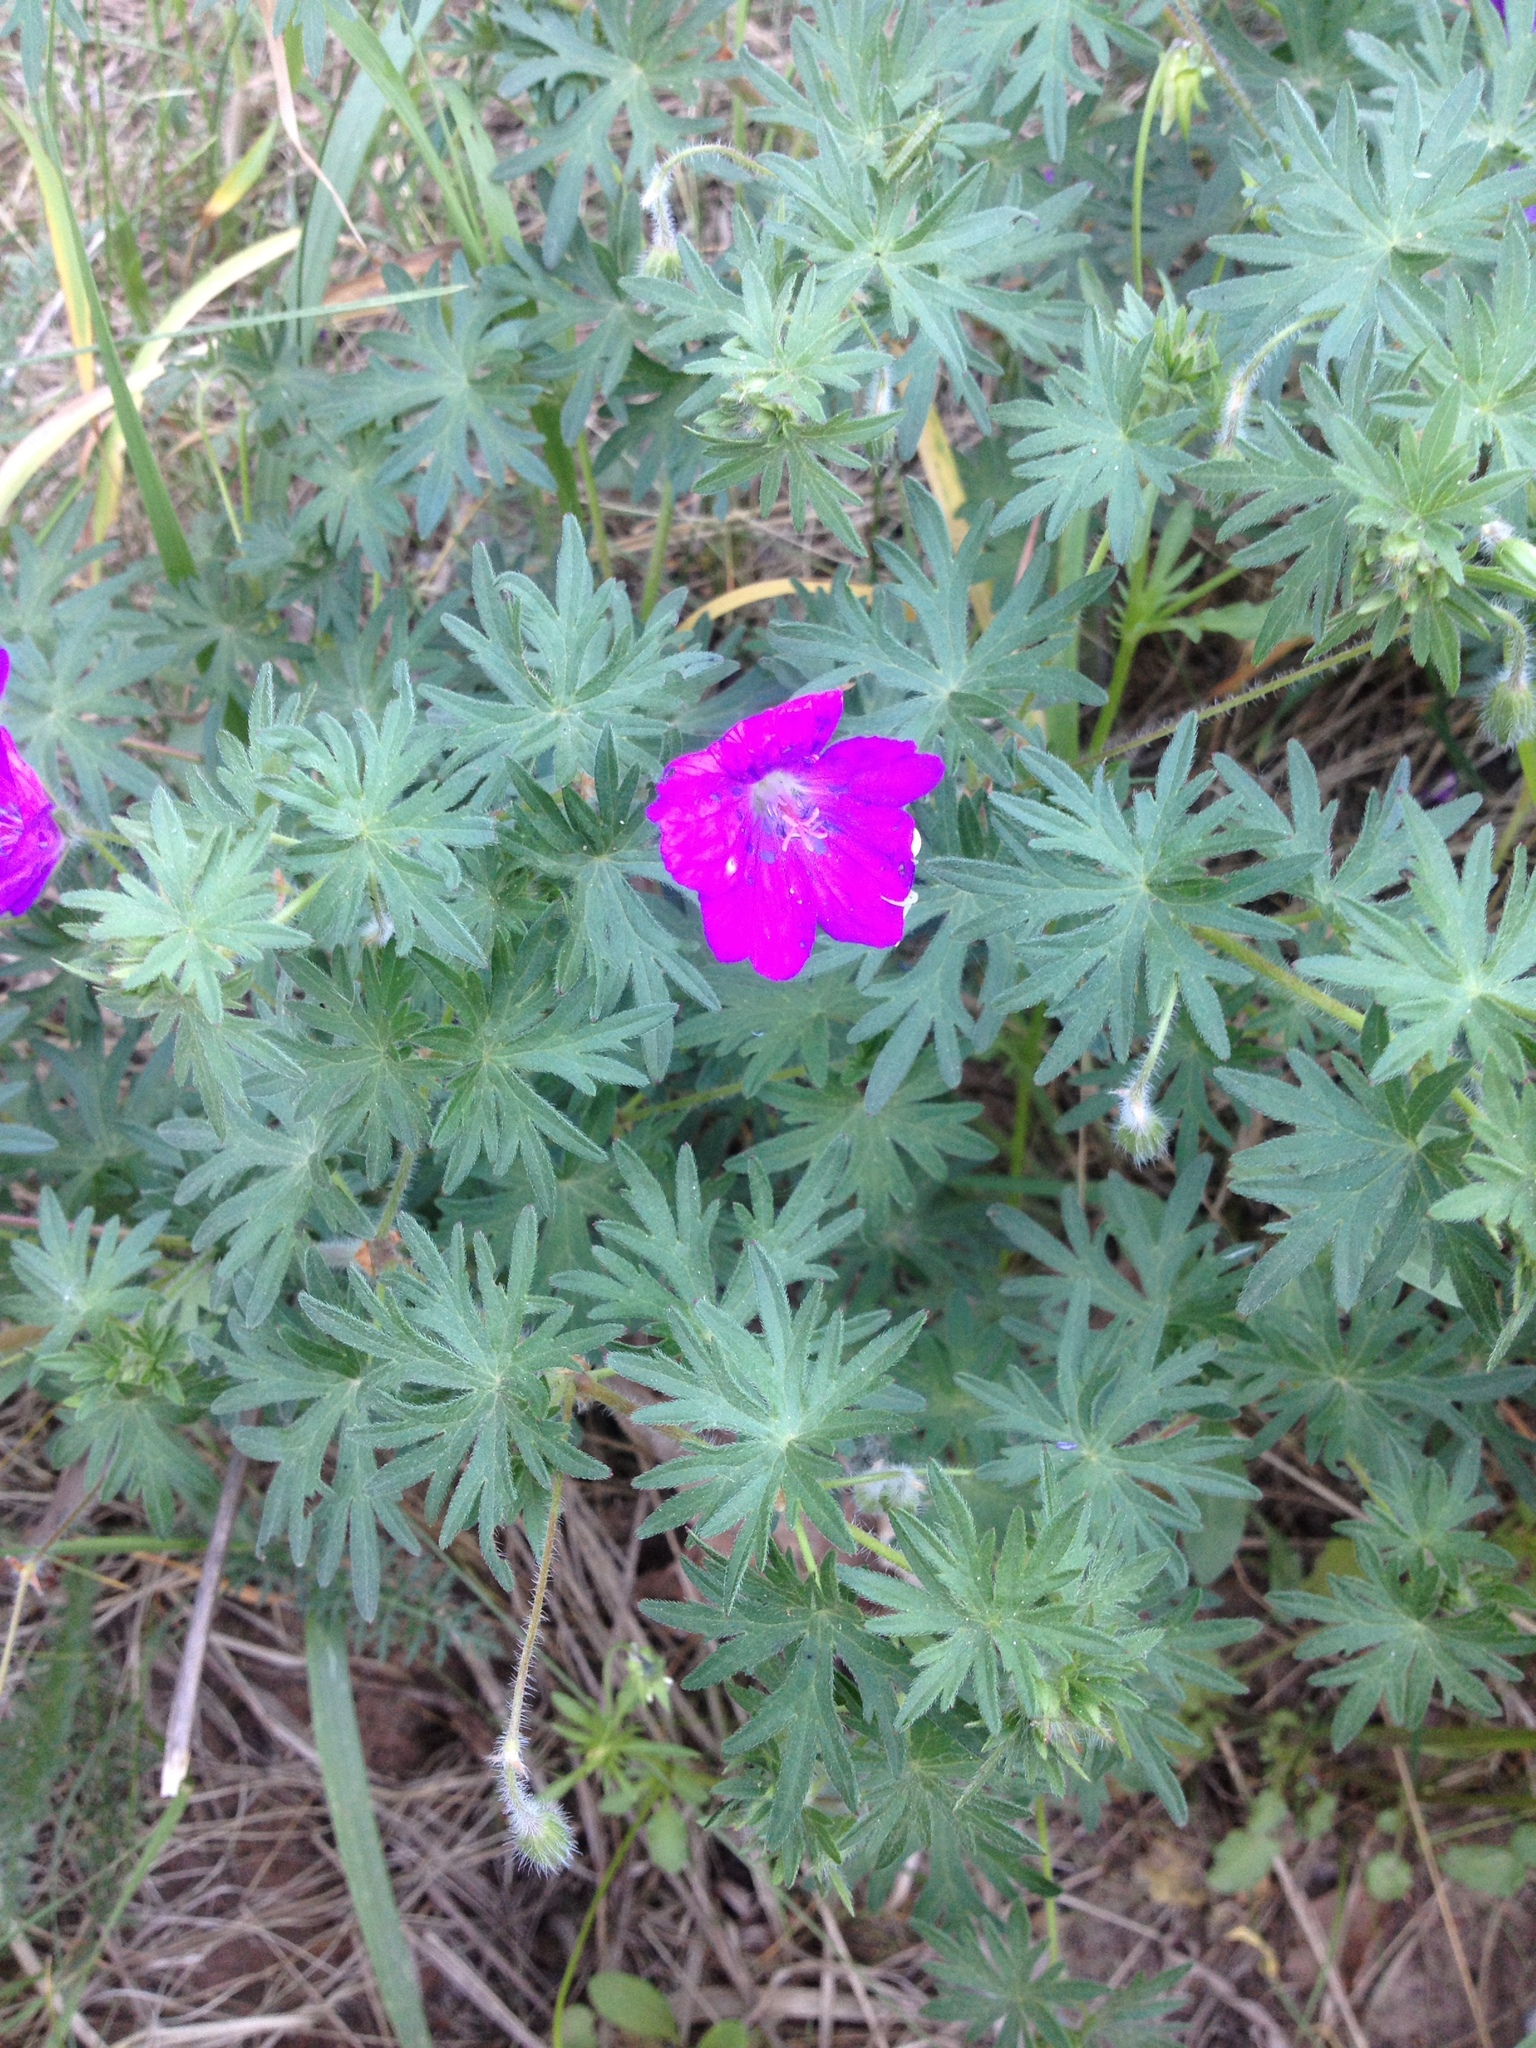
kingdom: Plantae
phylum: Tracheophyta
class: Magnoliopsida
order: Geraniales
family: Geraniaceae
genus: Geranium
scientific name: Geranium sanguineum
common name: Bloody crane's-bill
